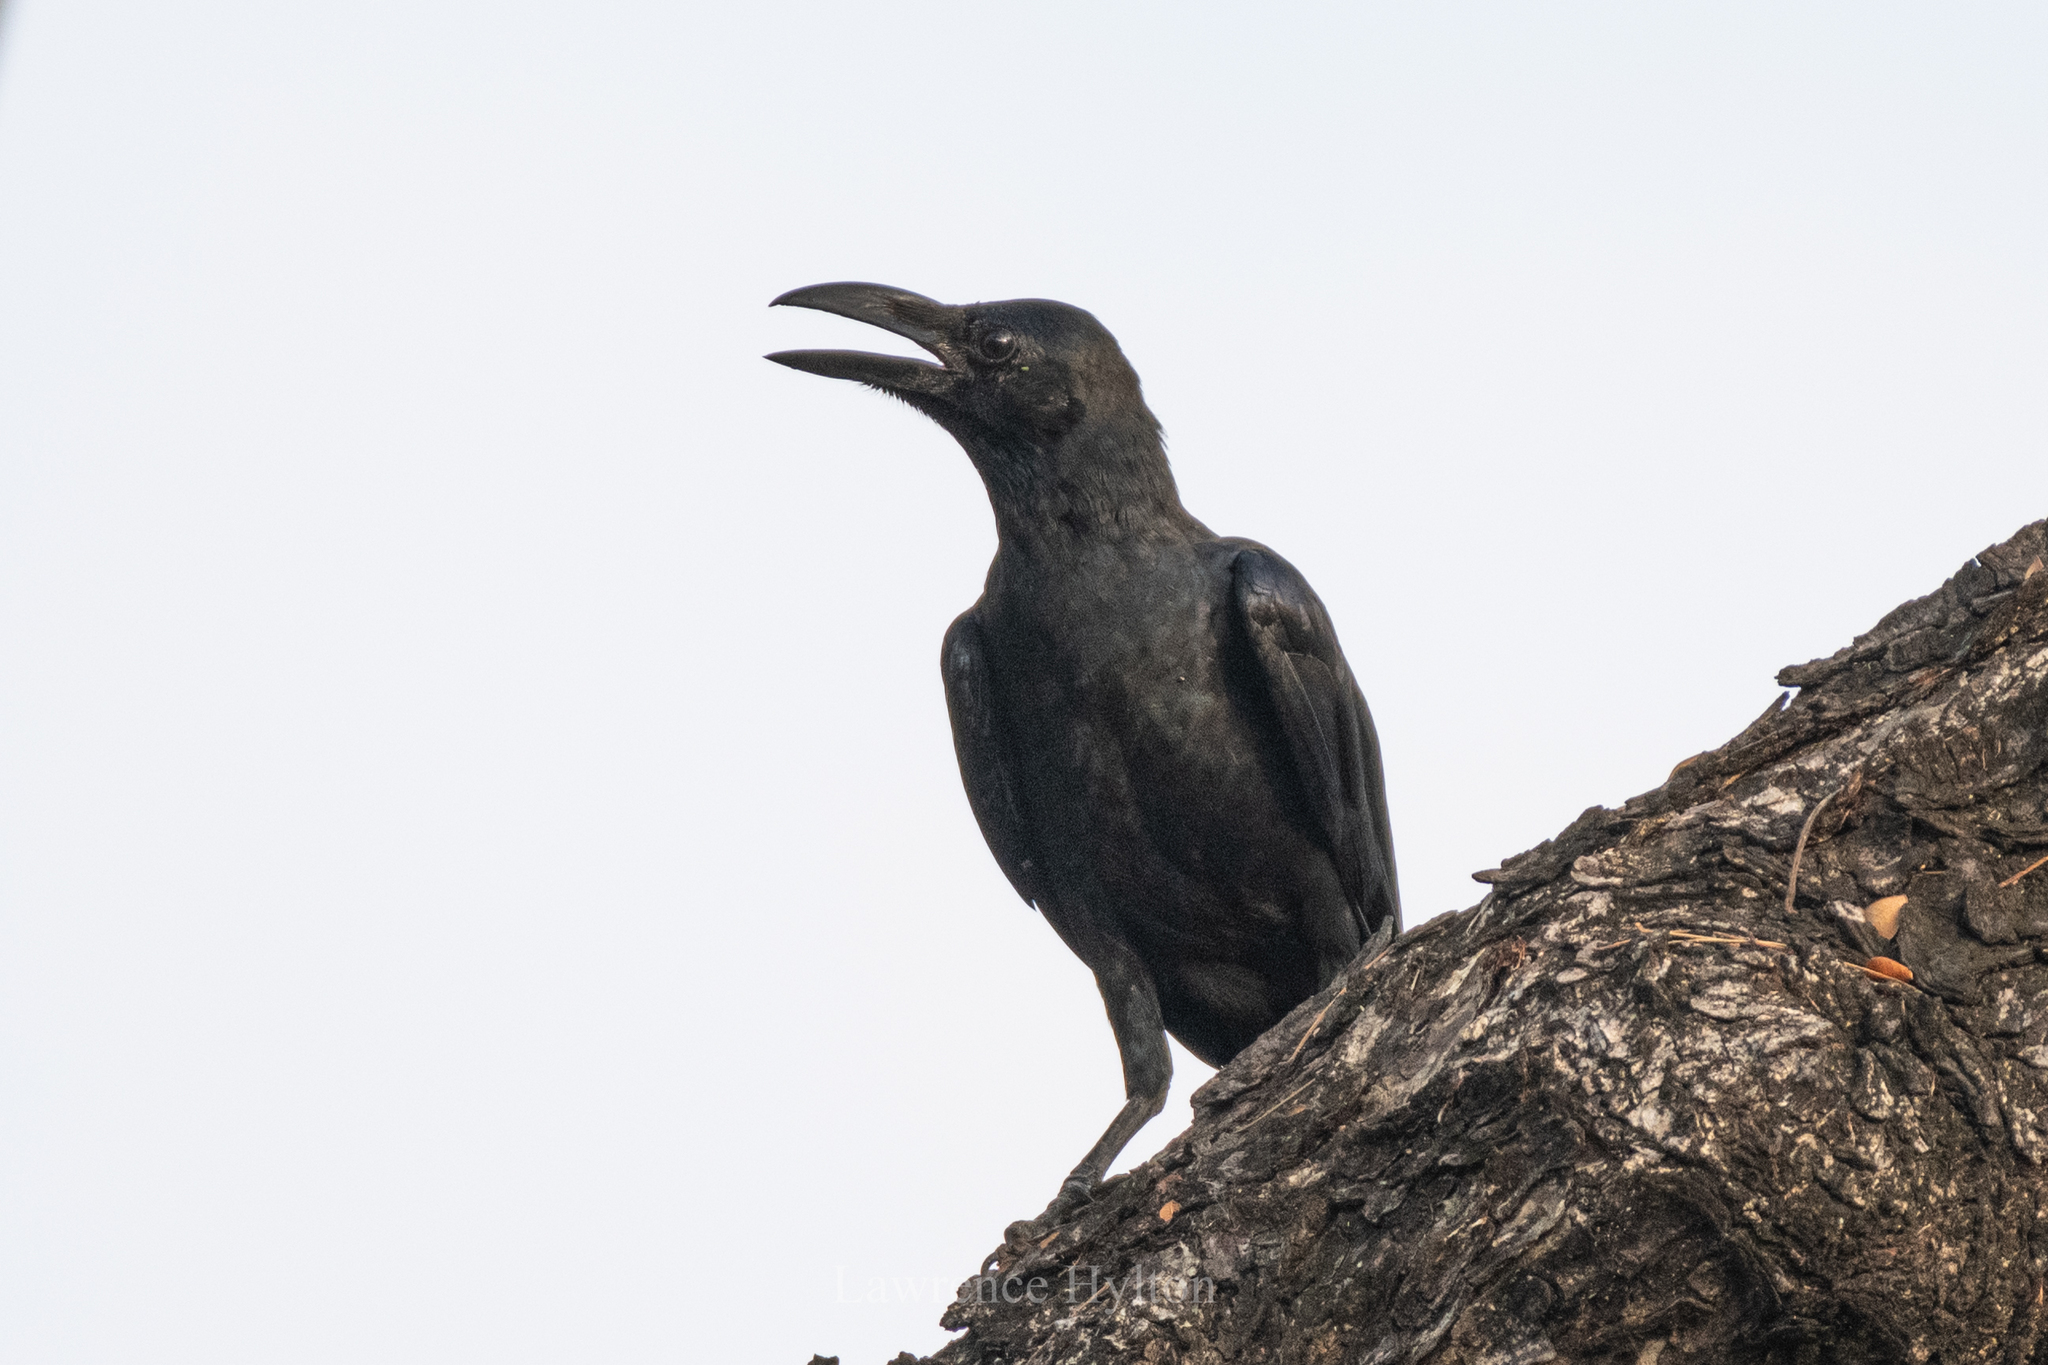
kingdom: Animalia
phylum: Chordata
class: Aves
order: Passeriformes
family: Corvidae
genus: Corvus
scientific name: Corvus macrorhynchos
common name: Large-billed crow
